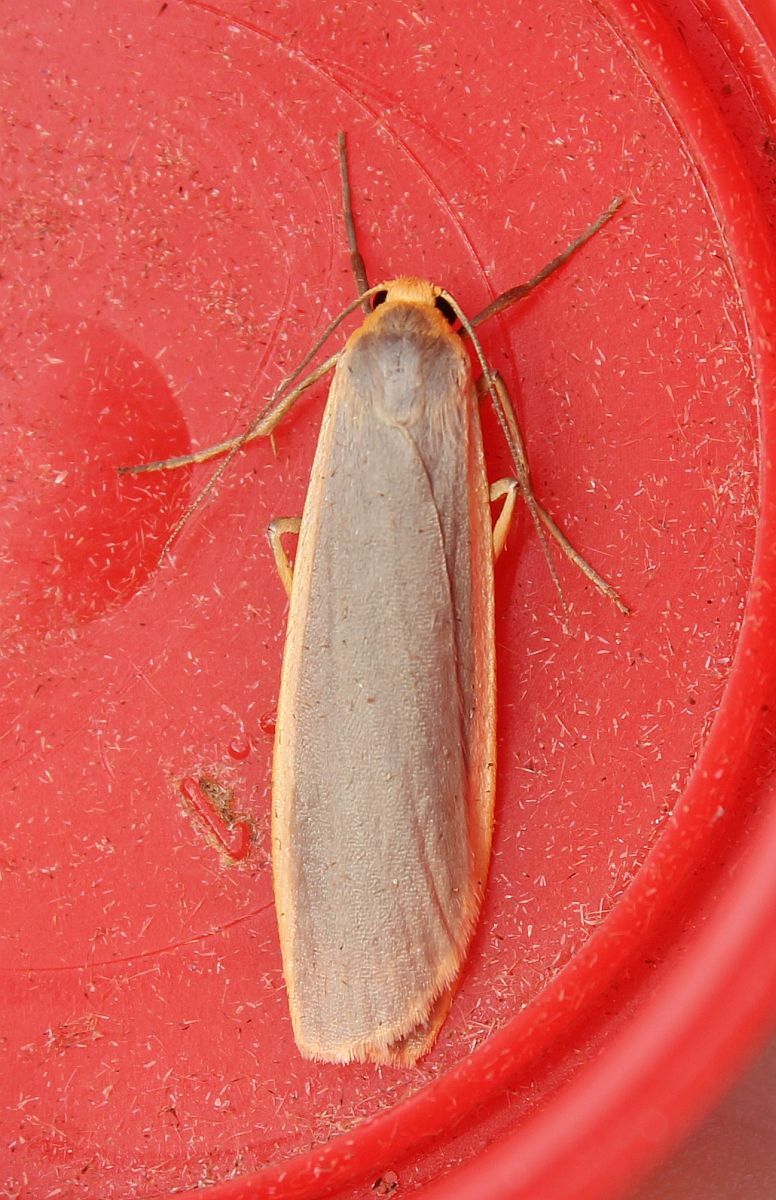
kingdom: Animalia
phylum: Arthropoda
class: Insecta
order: Lepidoptera
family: Erebidae
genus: Nyea
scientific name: Nyea lurideola
